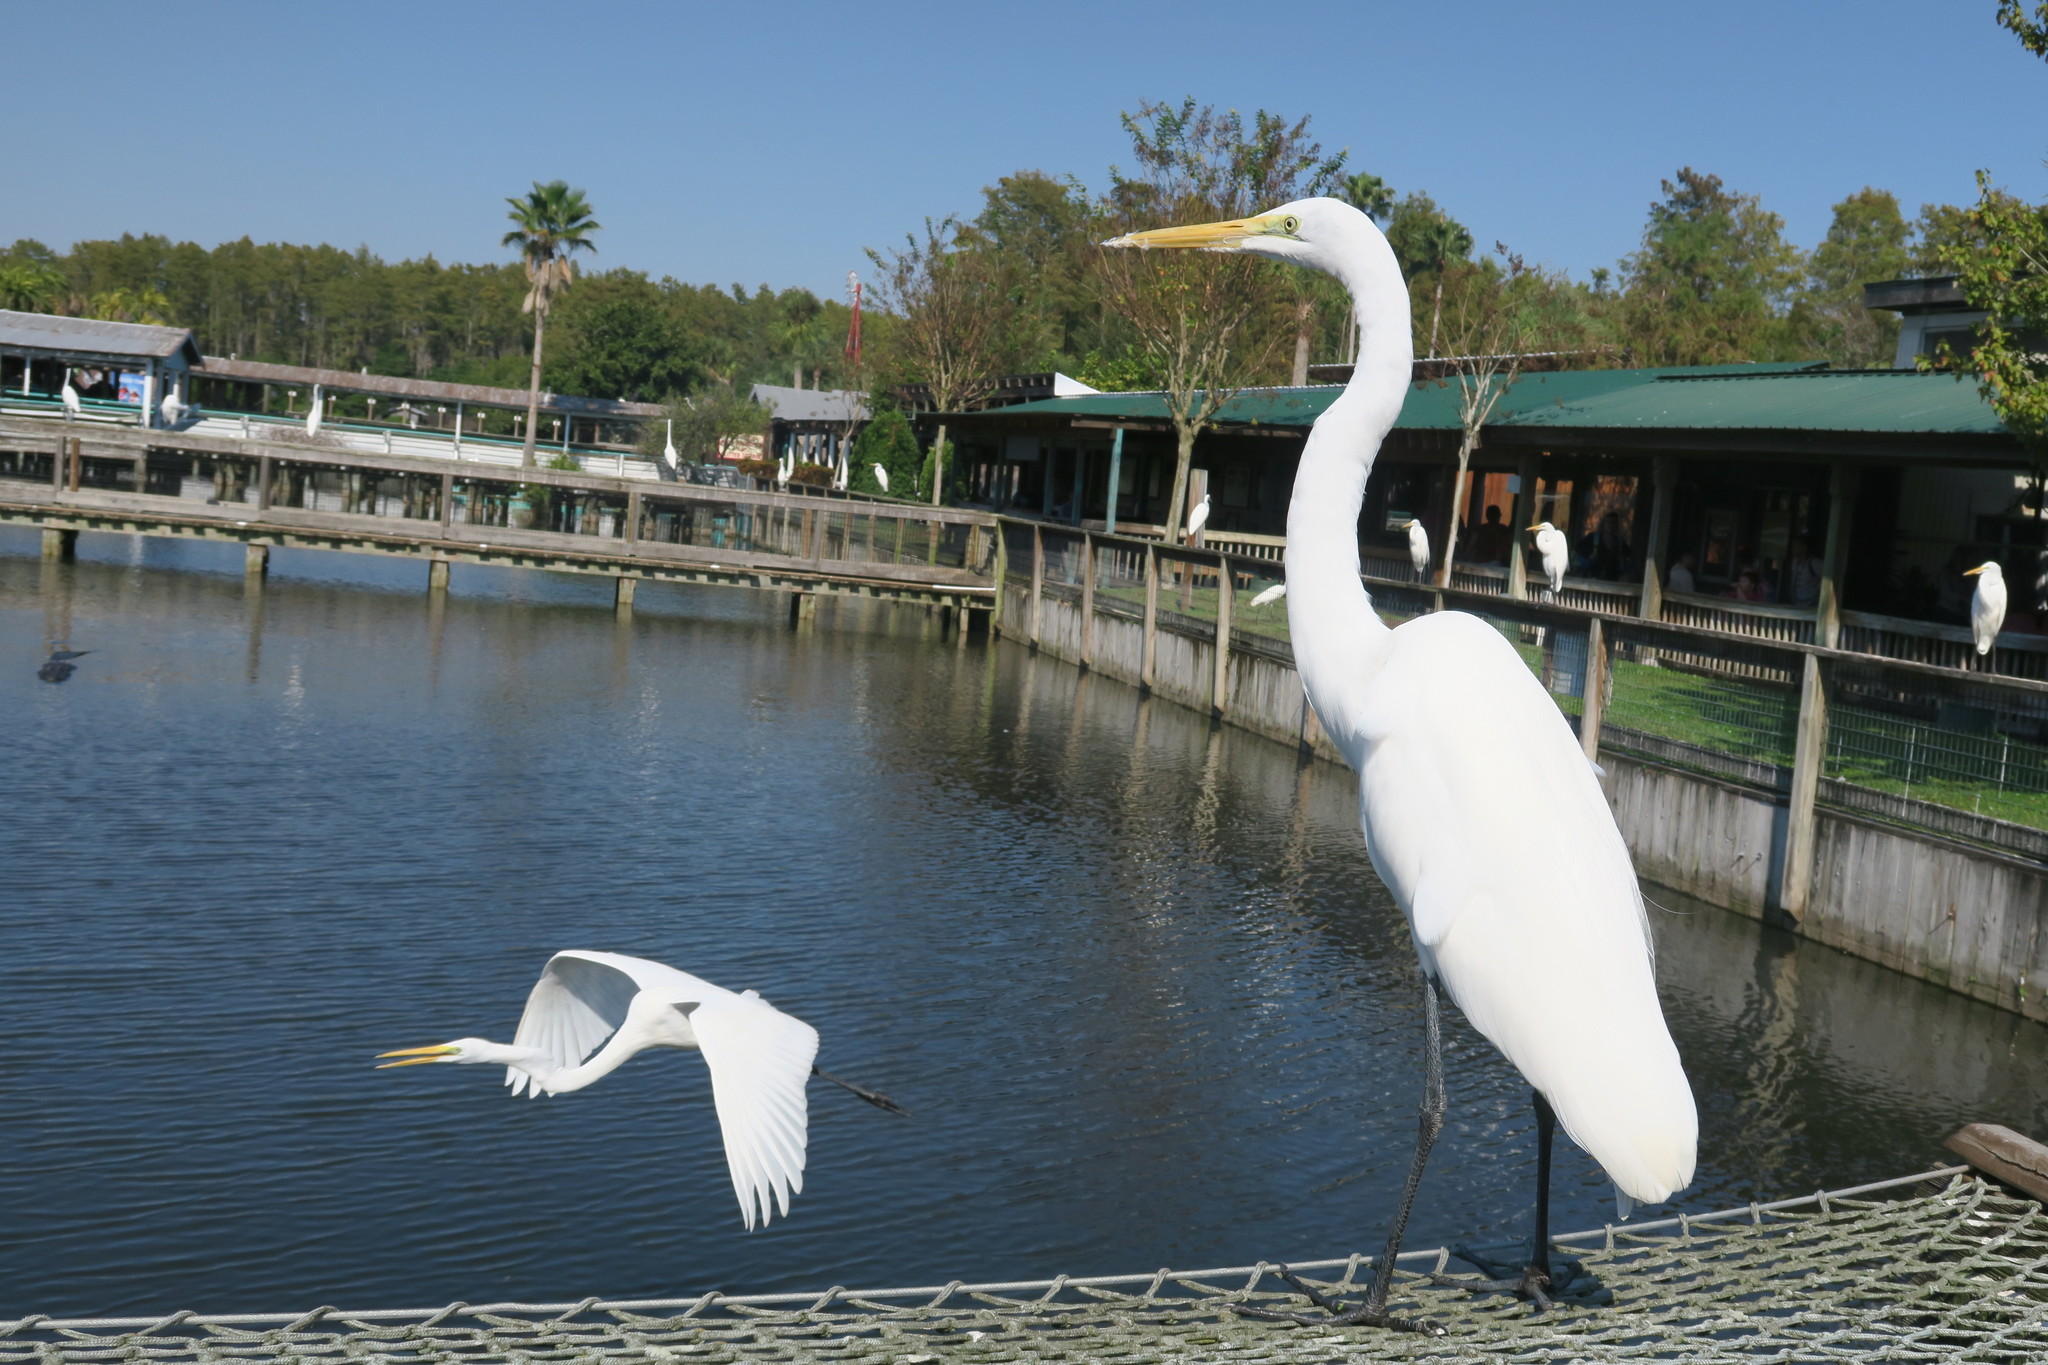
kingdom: Animalia
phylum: Chordata
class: Aves
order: Pelecaniformes
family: Ardeidae
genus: Ardea
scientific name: Ardea alba
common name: Great egret
